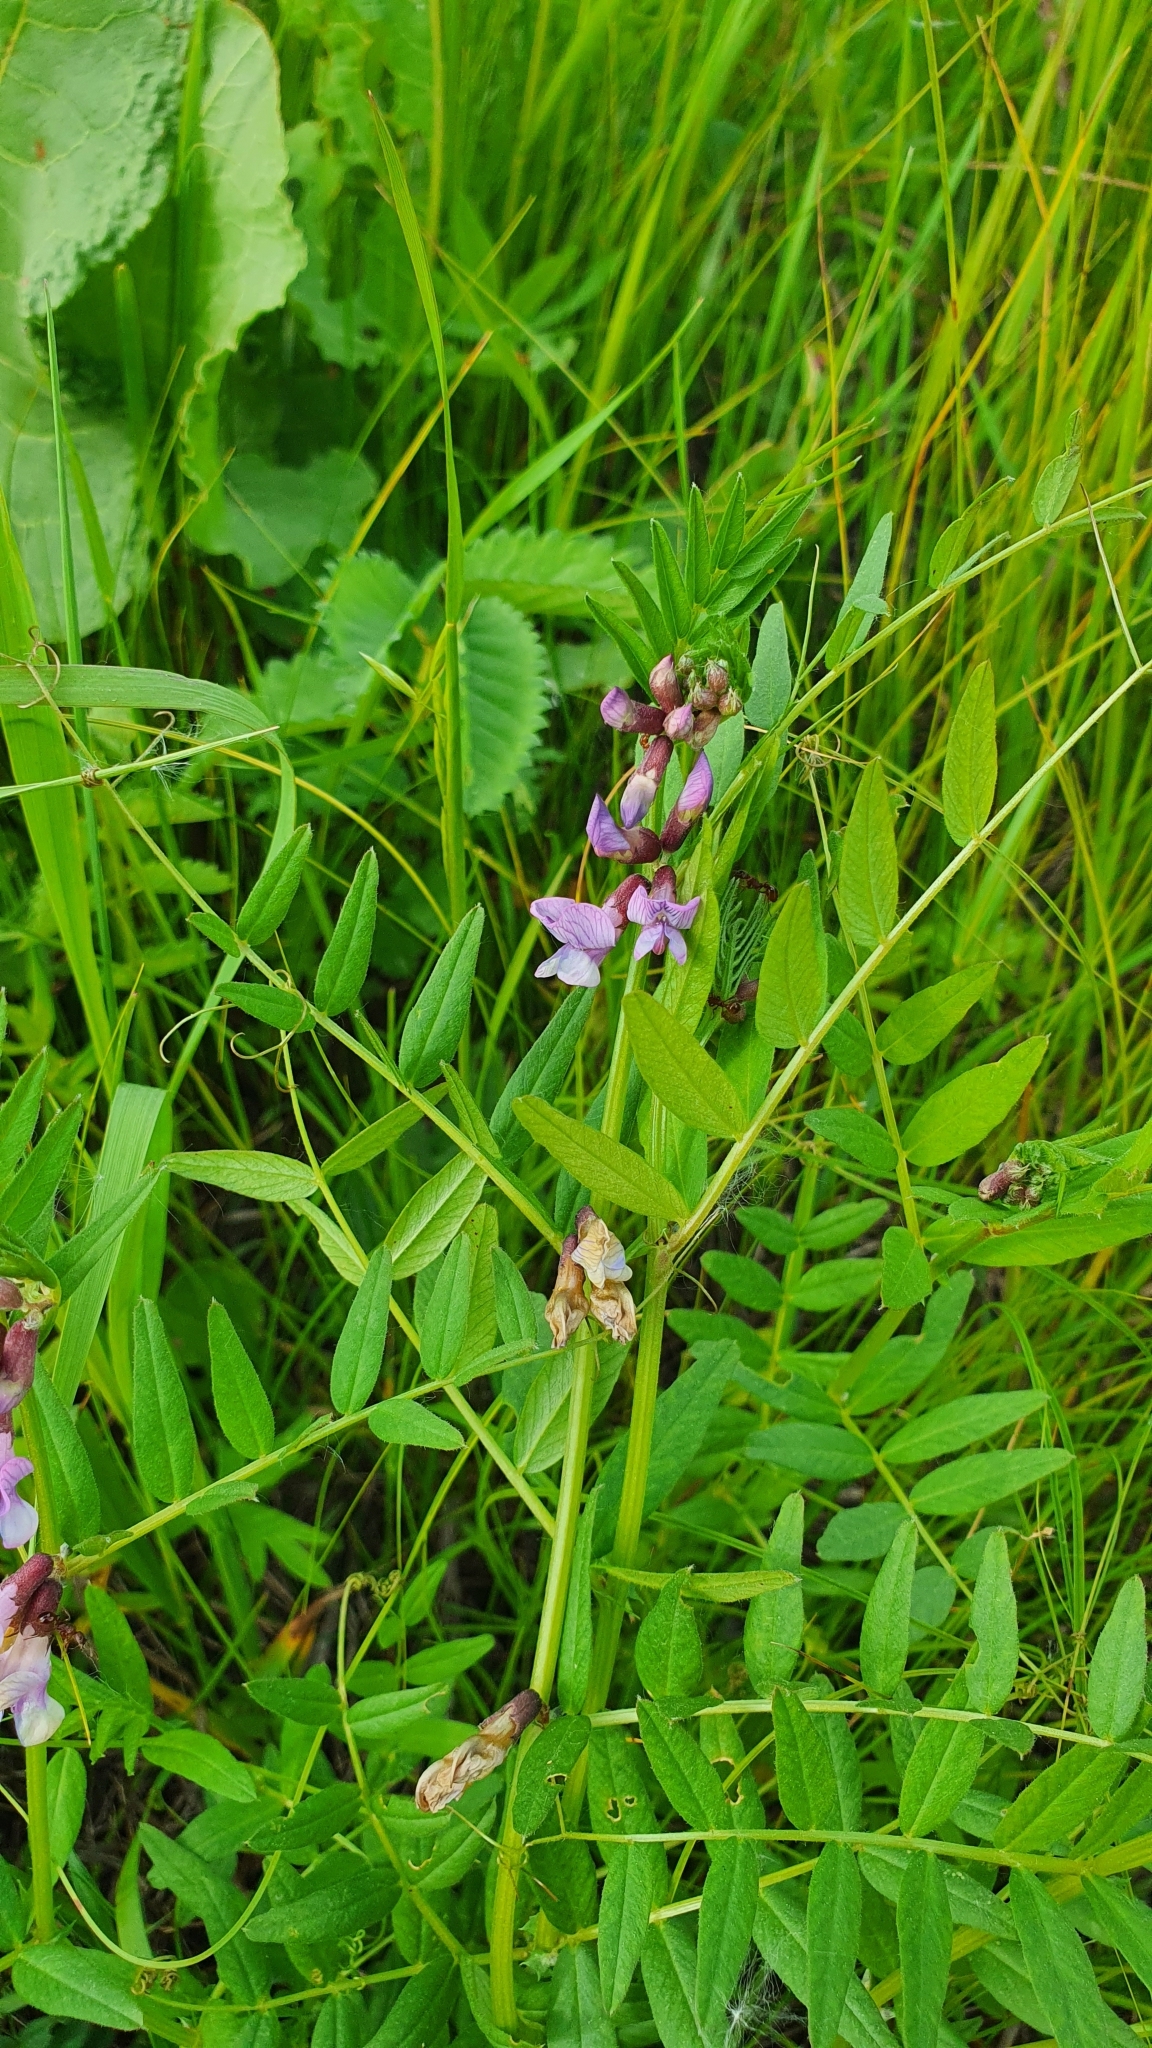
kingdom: Plantae
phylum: Tracheophyta
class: Magnoliopsida
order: Fabales
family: Fabaceae
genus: Vicia
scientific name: Vicia sepium
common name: Bush vetch
